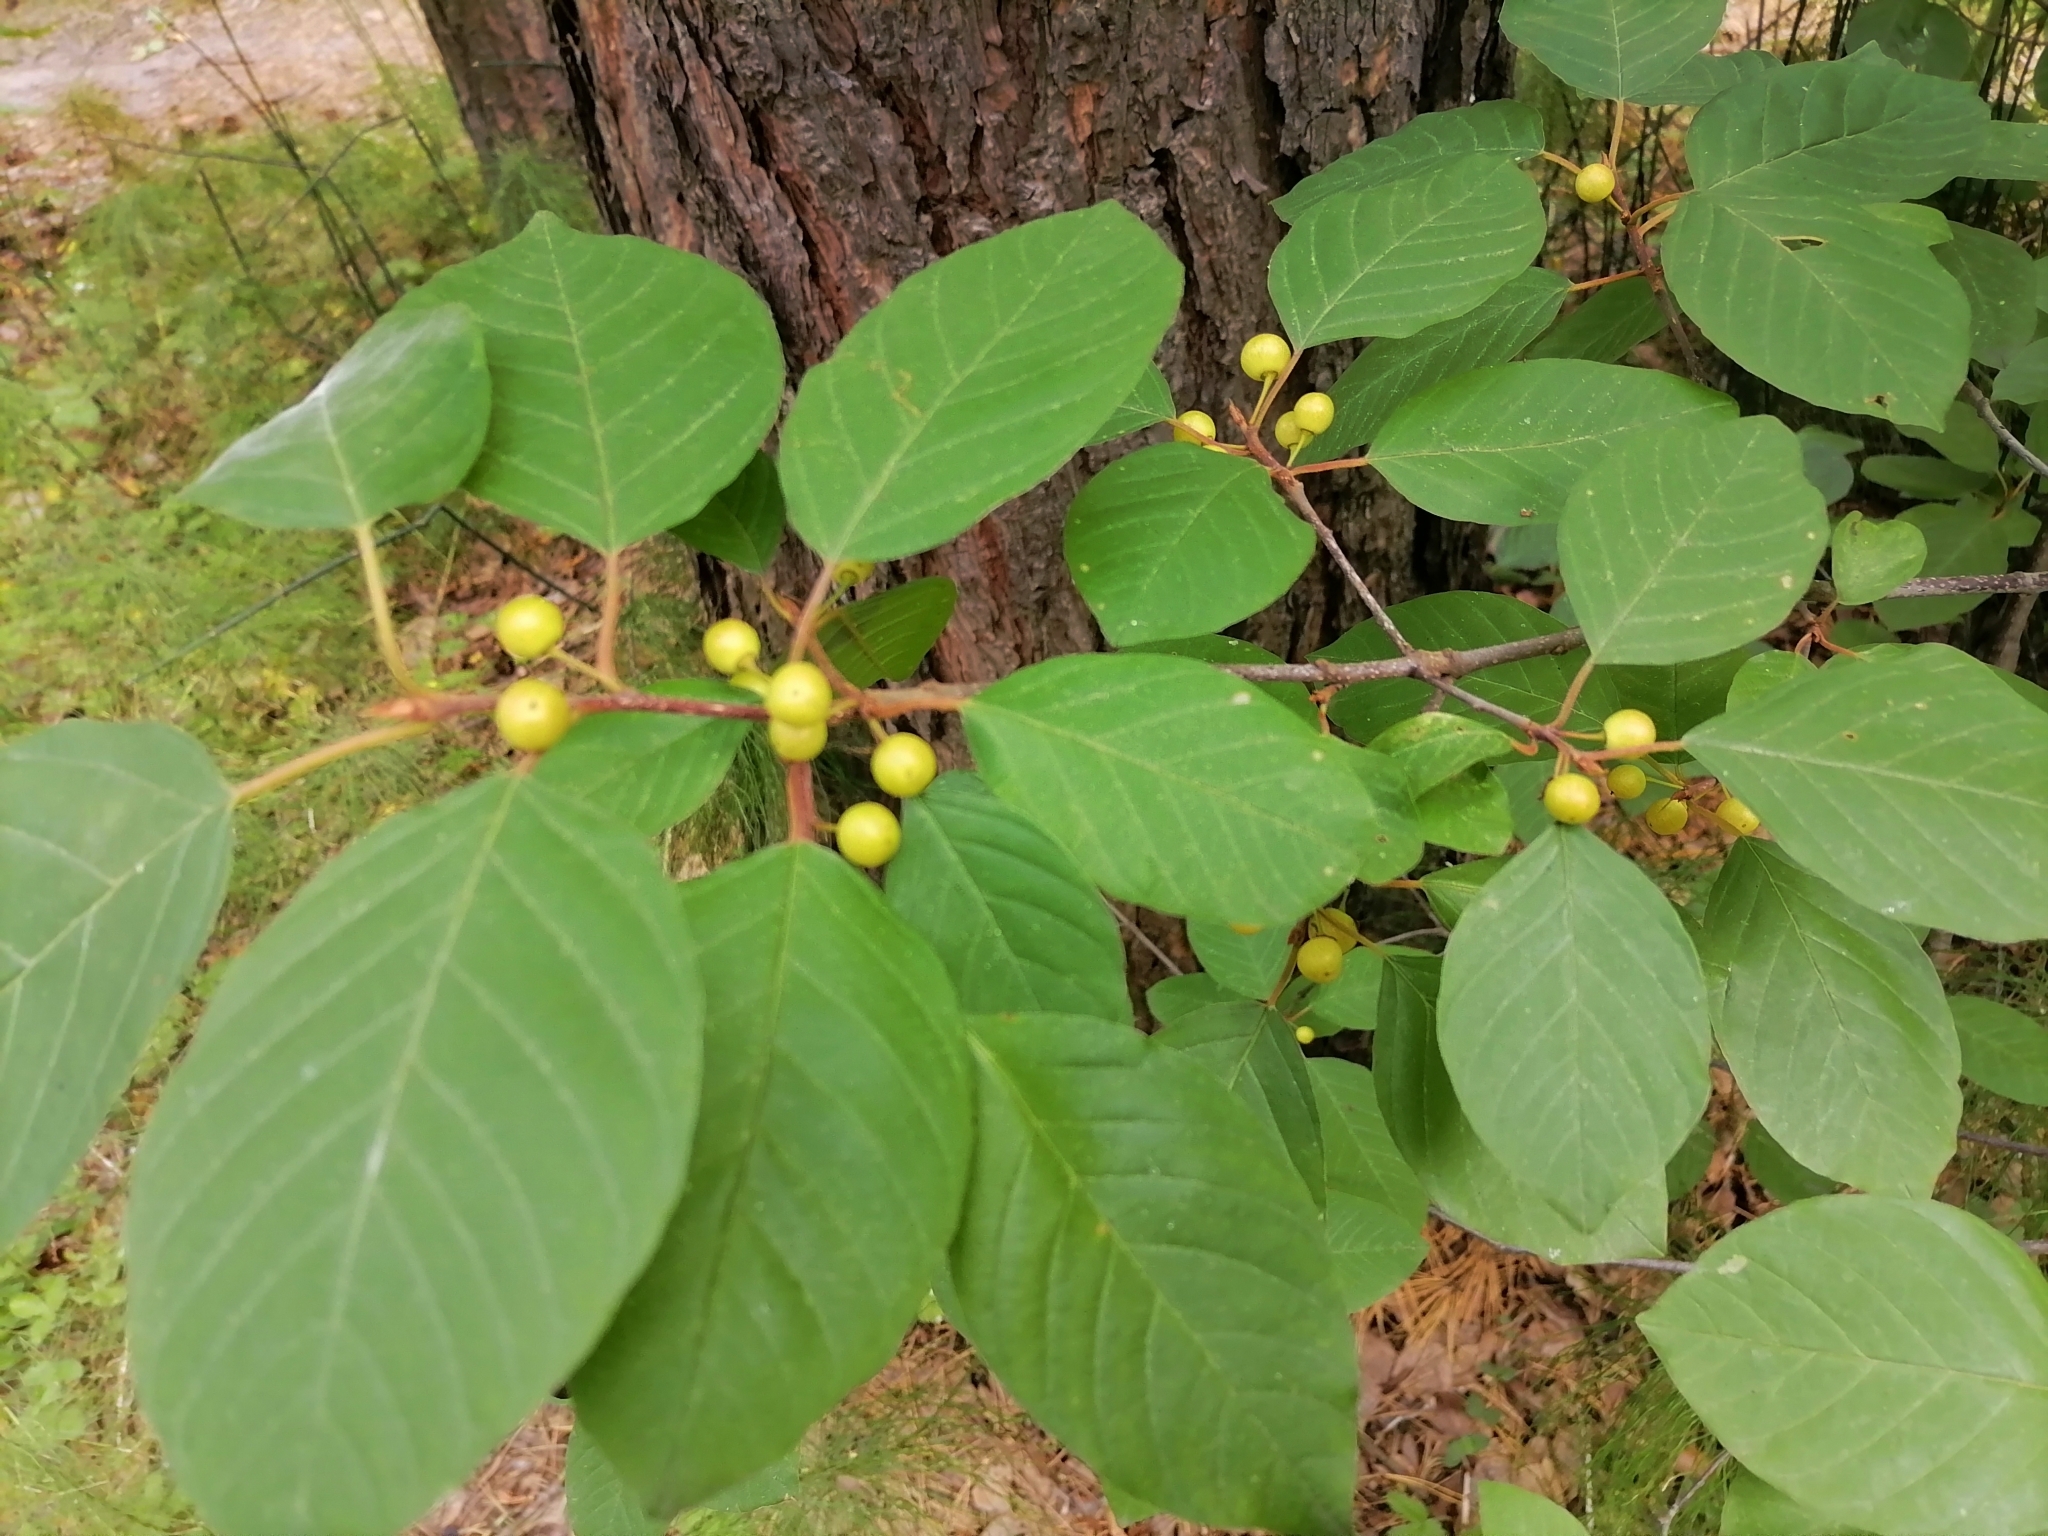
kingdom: Plantae
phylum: Tracheophyta
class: Magnoliopsida
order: Rosales
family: Rhamnaceae
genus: Frangula
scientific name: Frangula alnus
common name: Alder buckthorn
